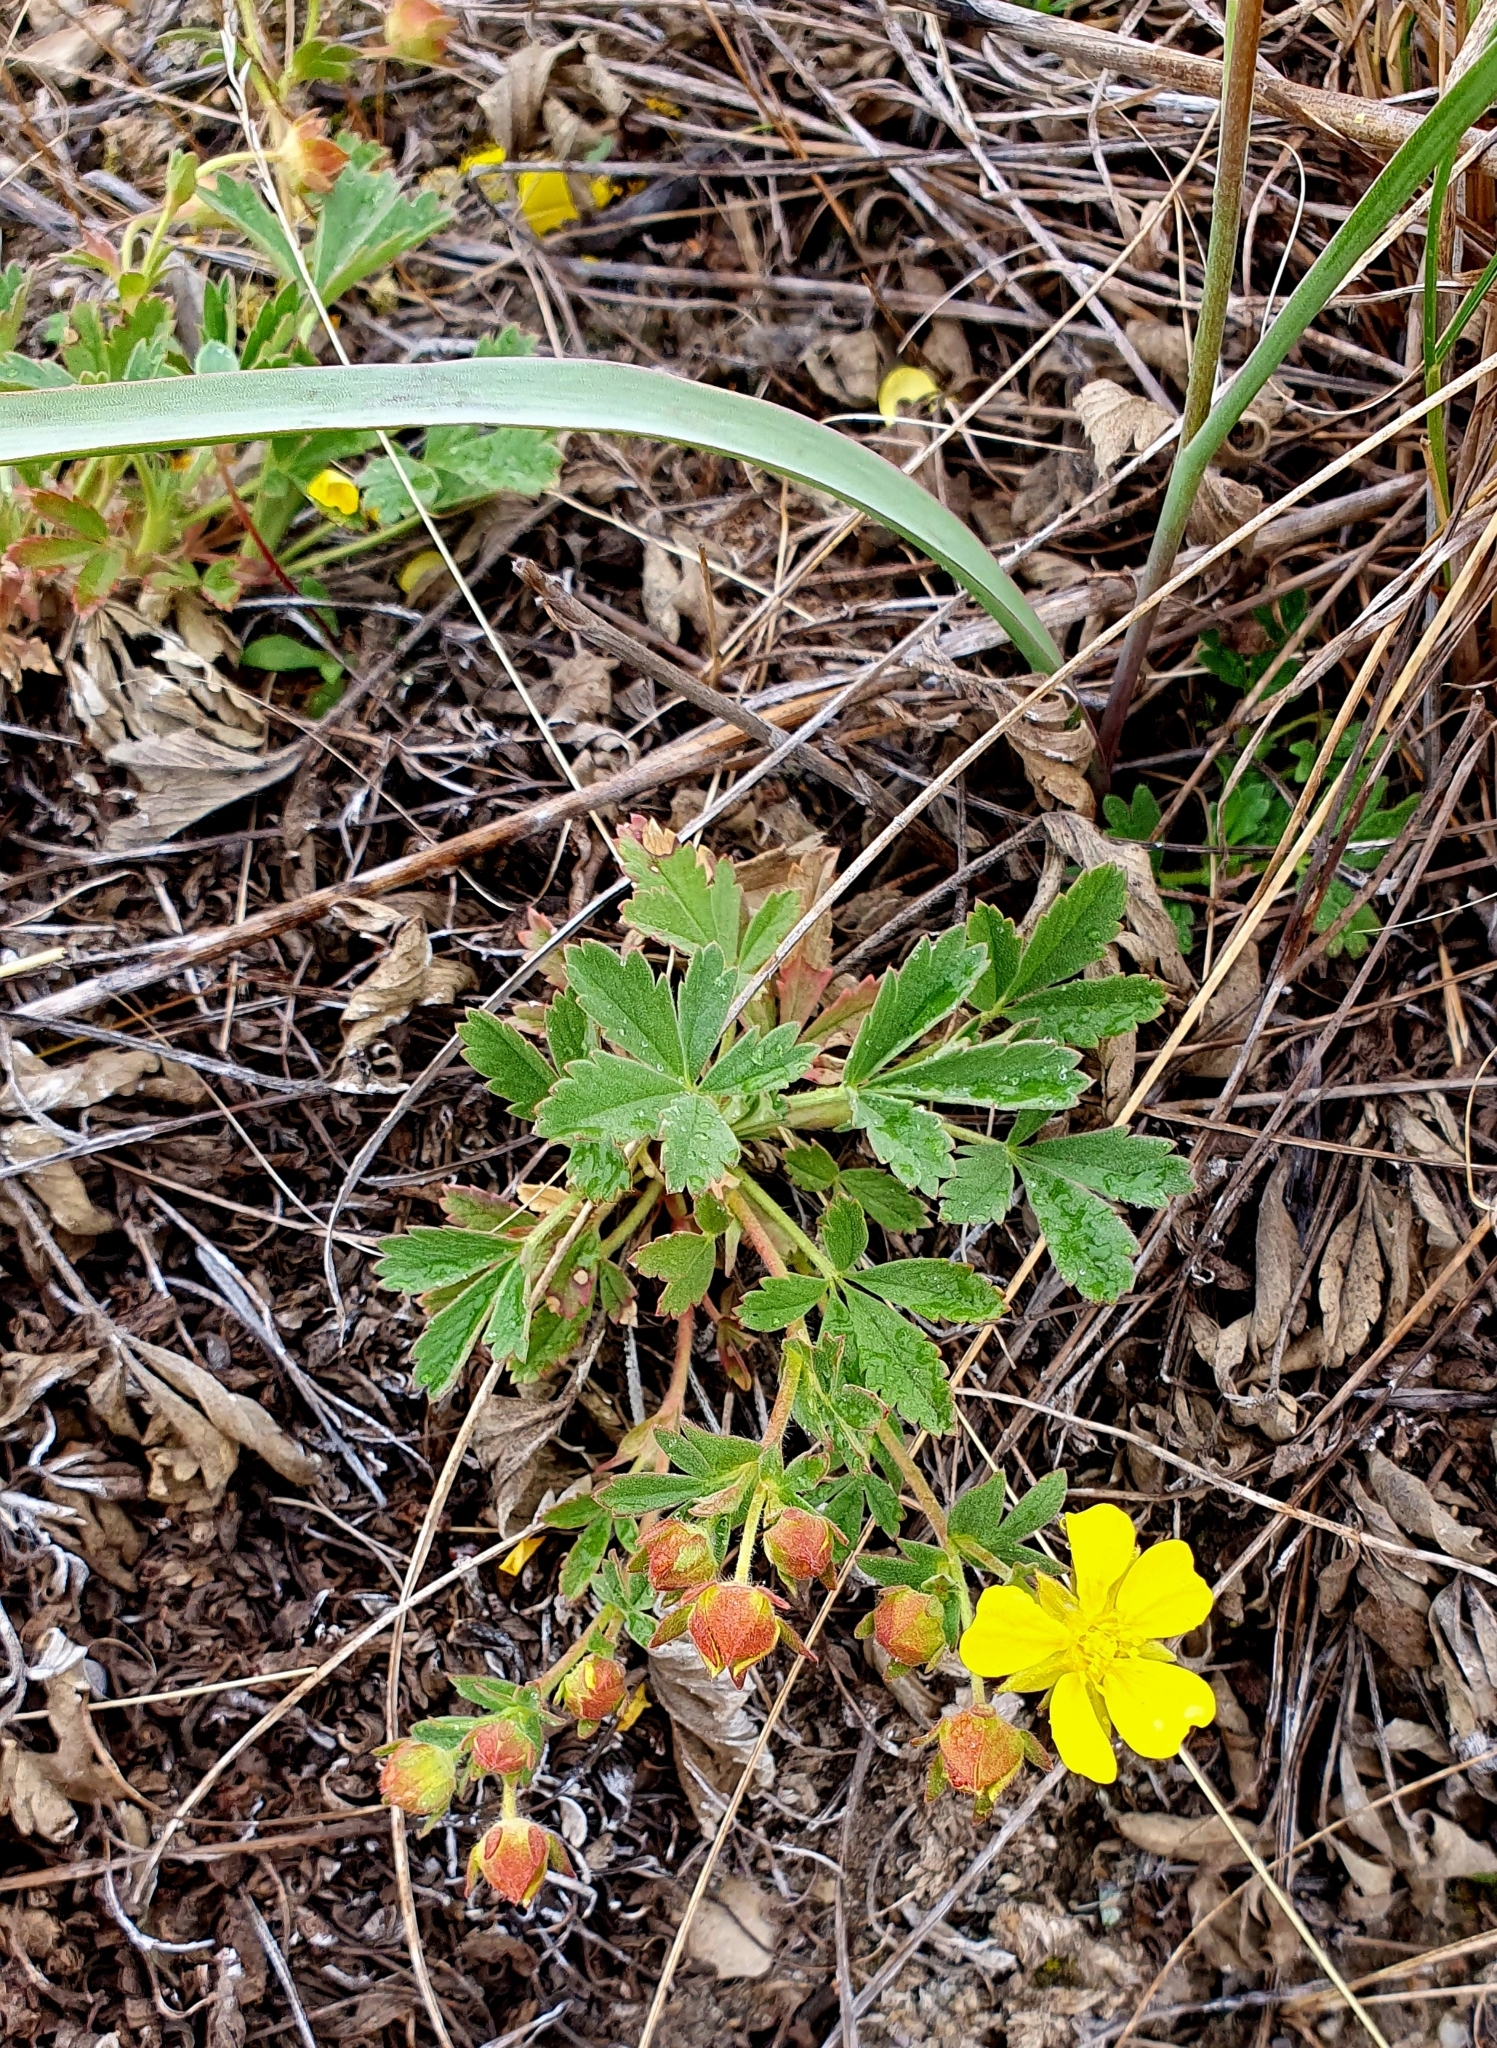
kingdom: Plantae
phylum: Tracheophyta
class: Magnoliopsida
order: Rosales
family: Rosaceae
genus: Potentilla
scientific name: Potentilla incana
